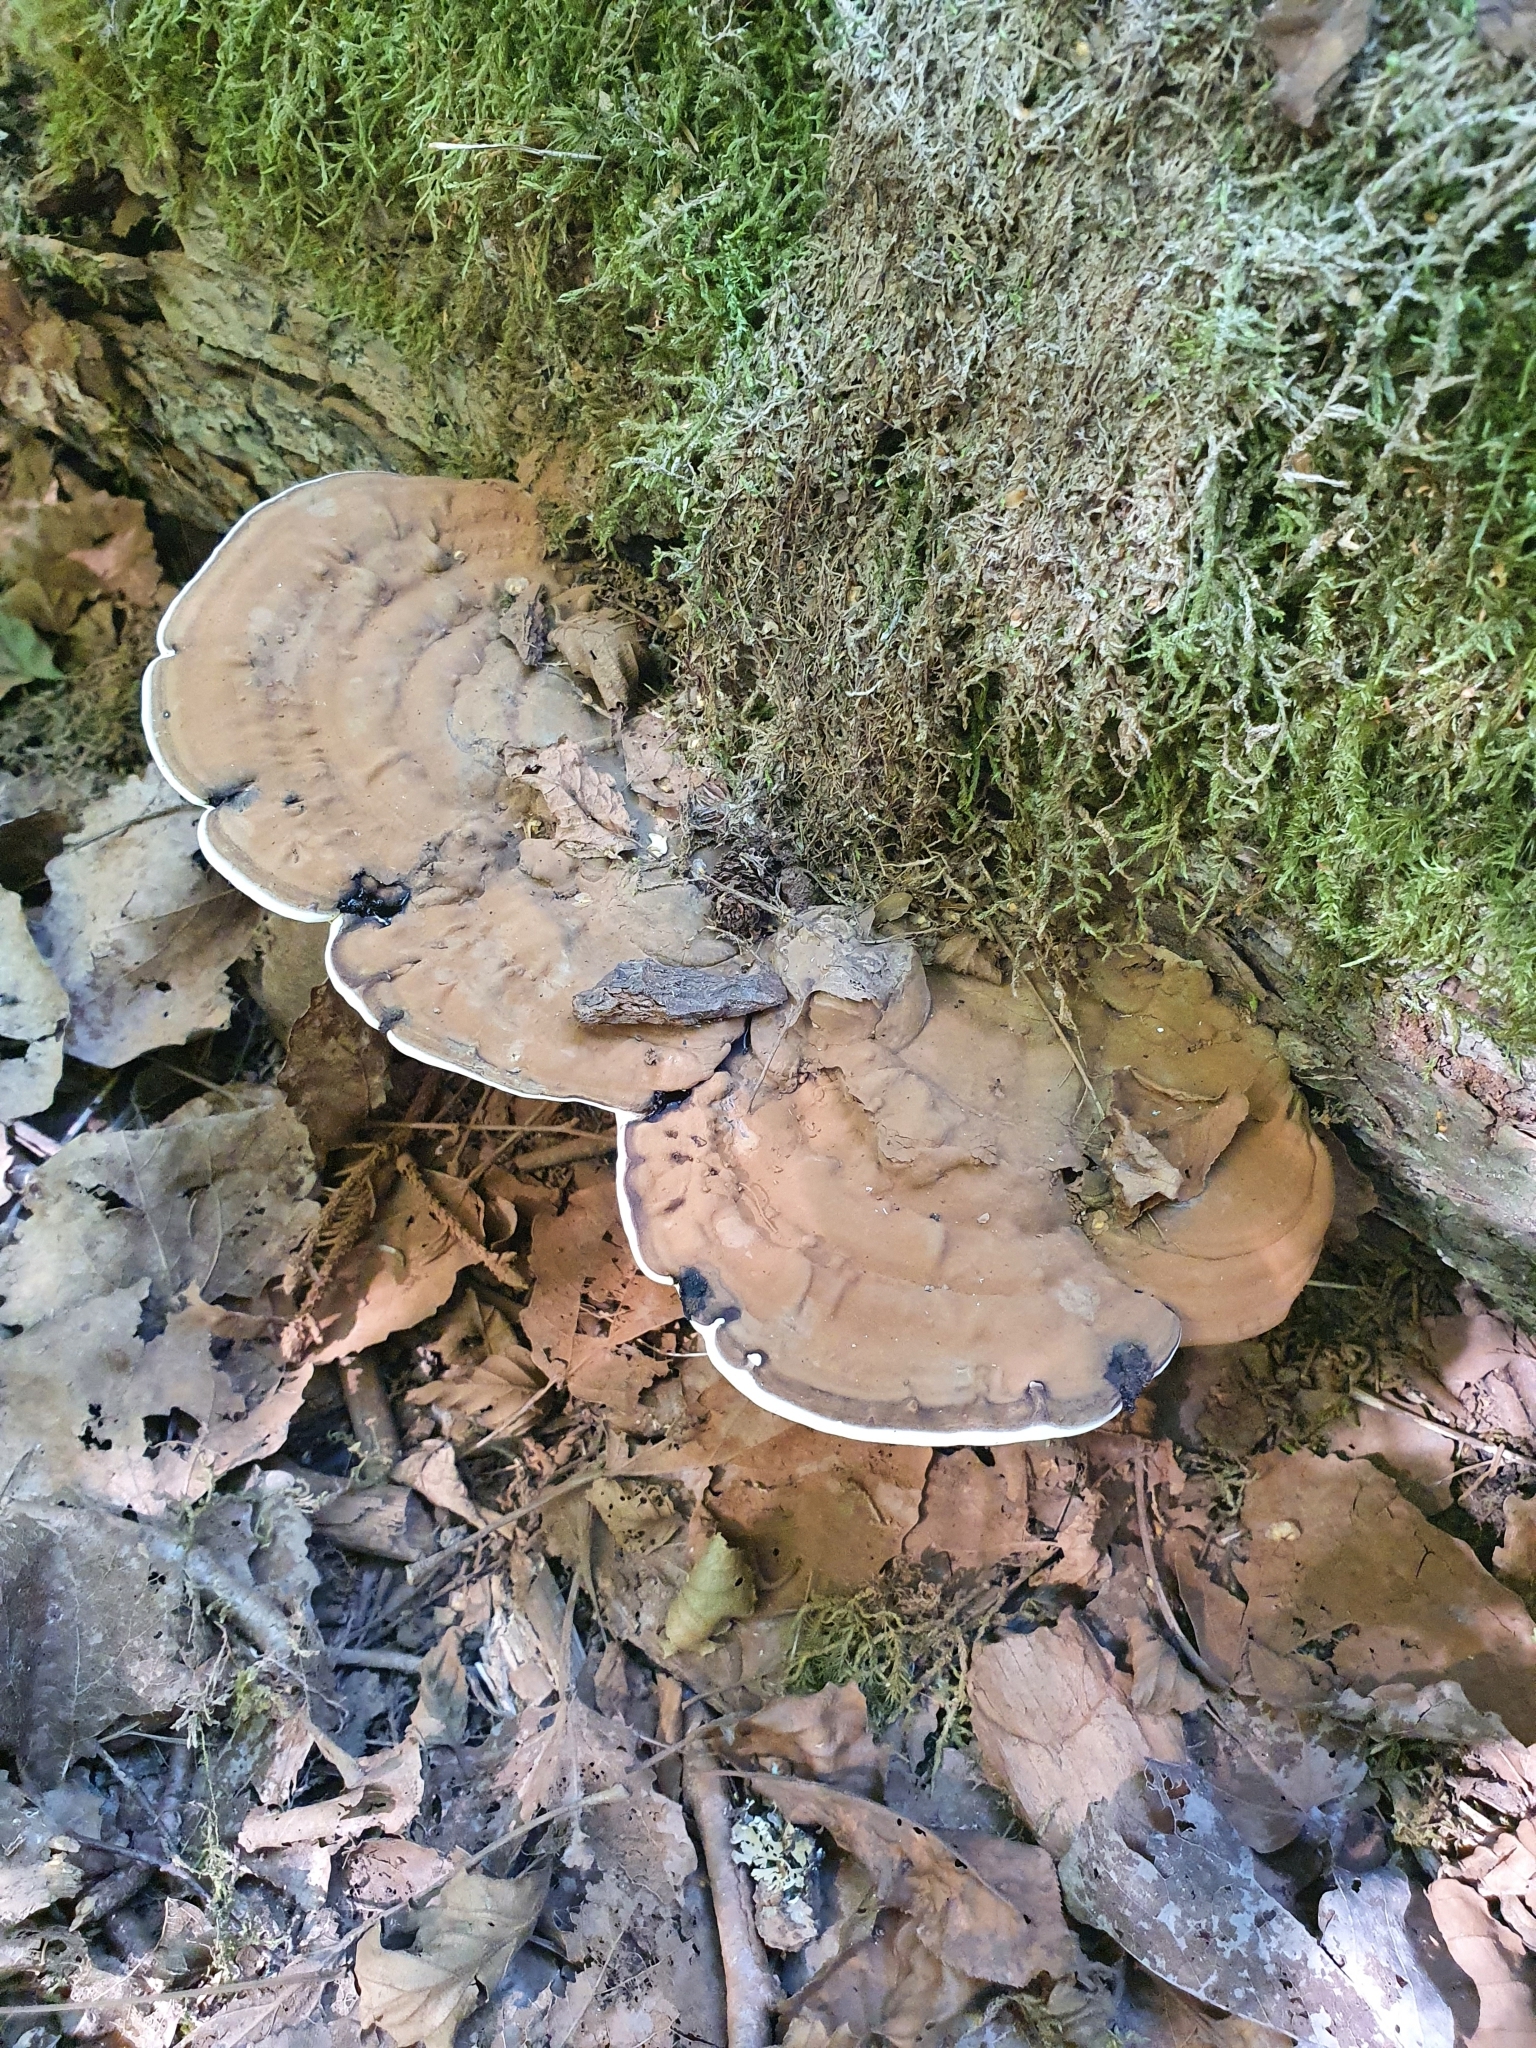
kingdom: Fungi
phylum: Basidiomycota
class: Agaricomycetes
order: Polyporales
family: Polyporaceae
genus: Ganoderma
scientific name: Ganoderma applanatum
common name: Artist's bracket
